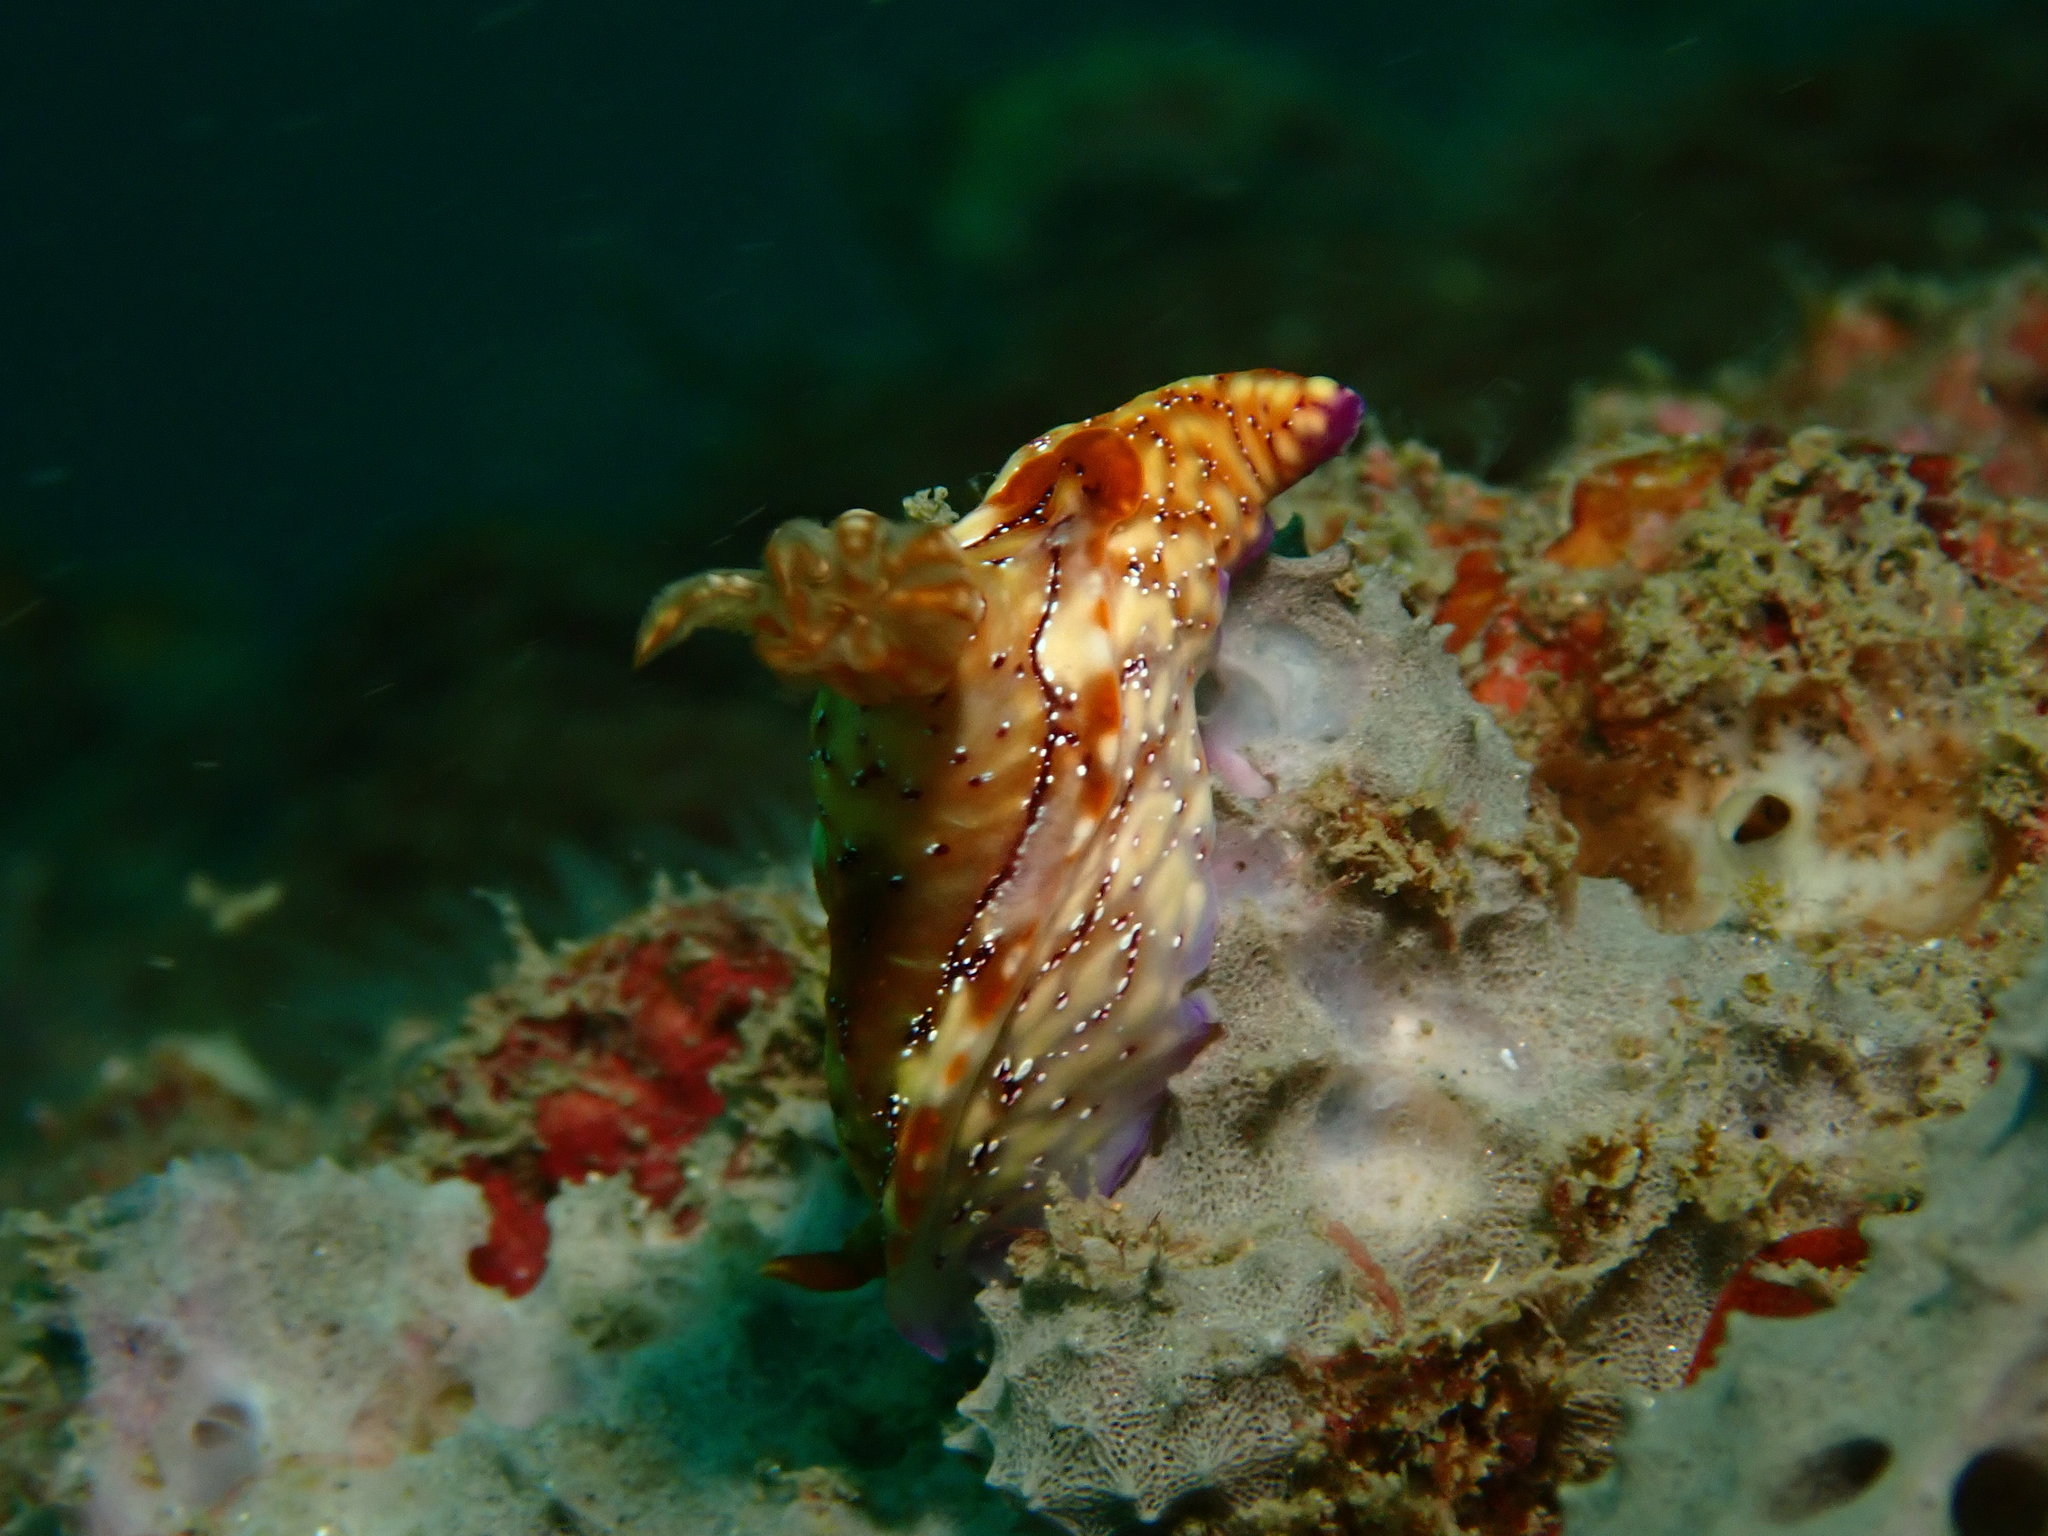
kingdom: Animalia
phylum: Mollusca
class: Gastropoda
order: Nudibranchia
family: Chromodorididae
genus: Hypselodoris
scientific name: Hypselodoris krakatoa
